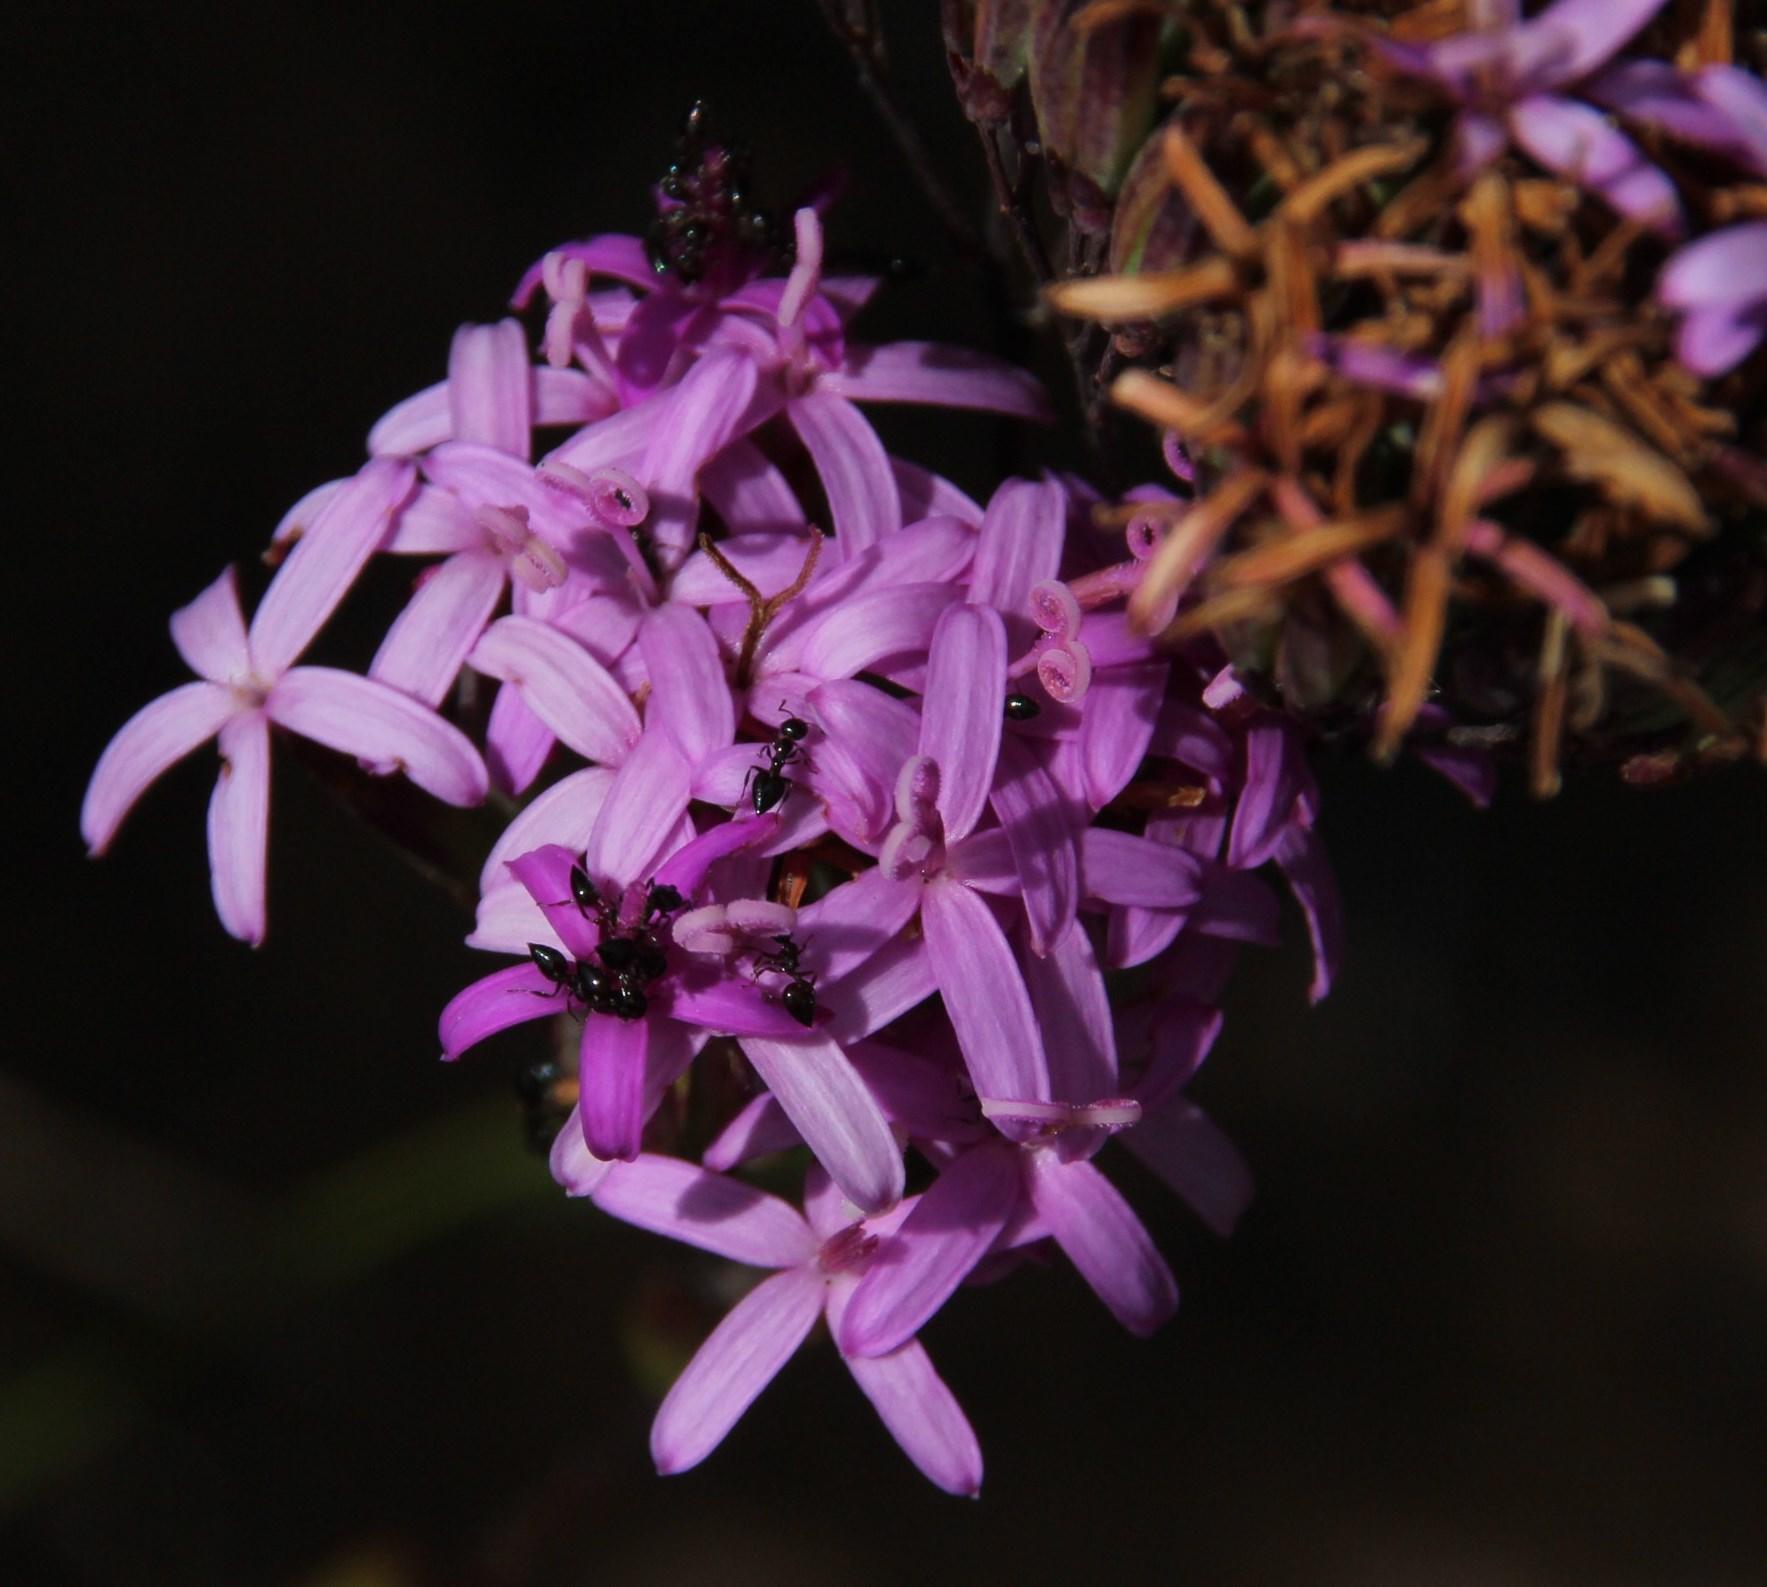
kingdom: Plantae
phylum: Tracheophyta
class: Magnoliopsida
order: Asterales
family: Asteraceae
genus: Corymbium
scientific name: Corymbium glabrum
